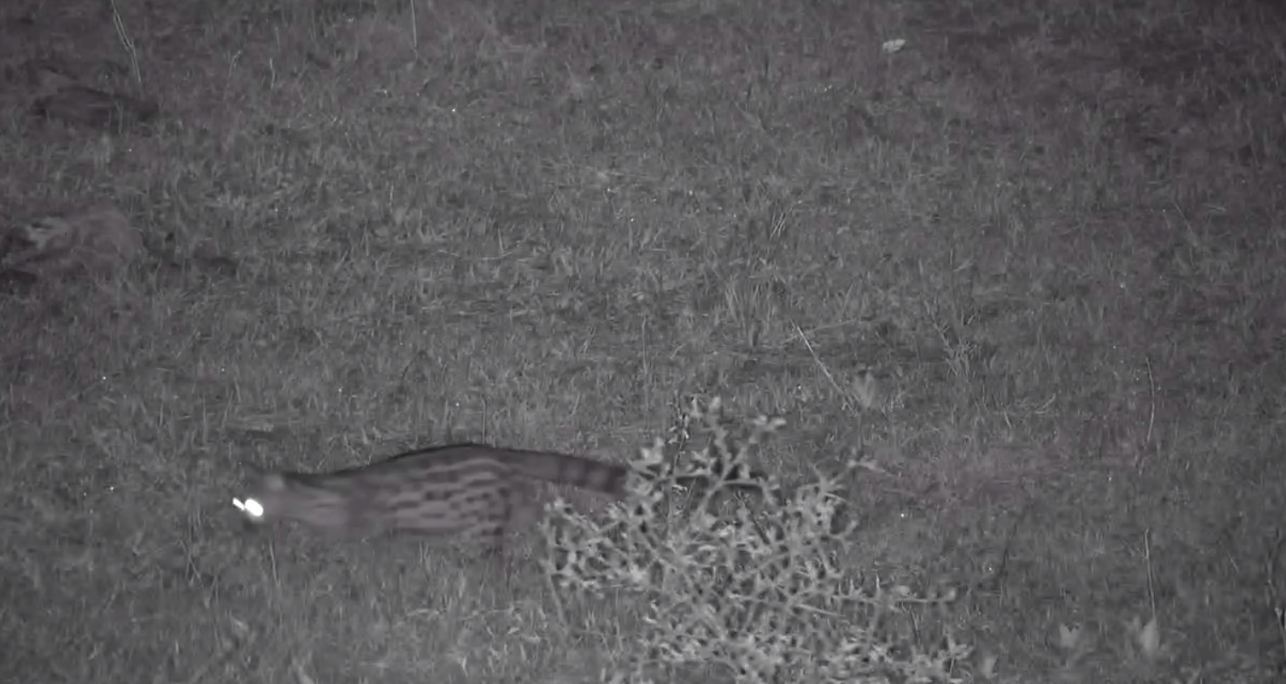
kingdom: Animalia
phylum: Chordata
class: Mammalia
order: Carnivora
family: Viverridae
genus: Genetta
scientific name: Genetta maculata
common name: Rusty-spotted genet
